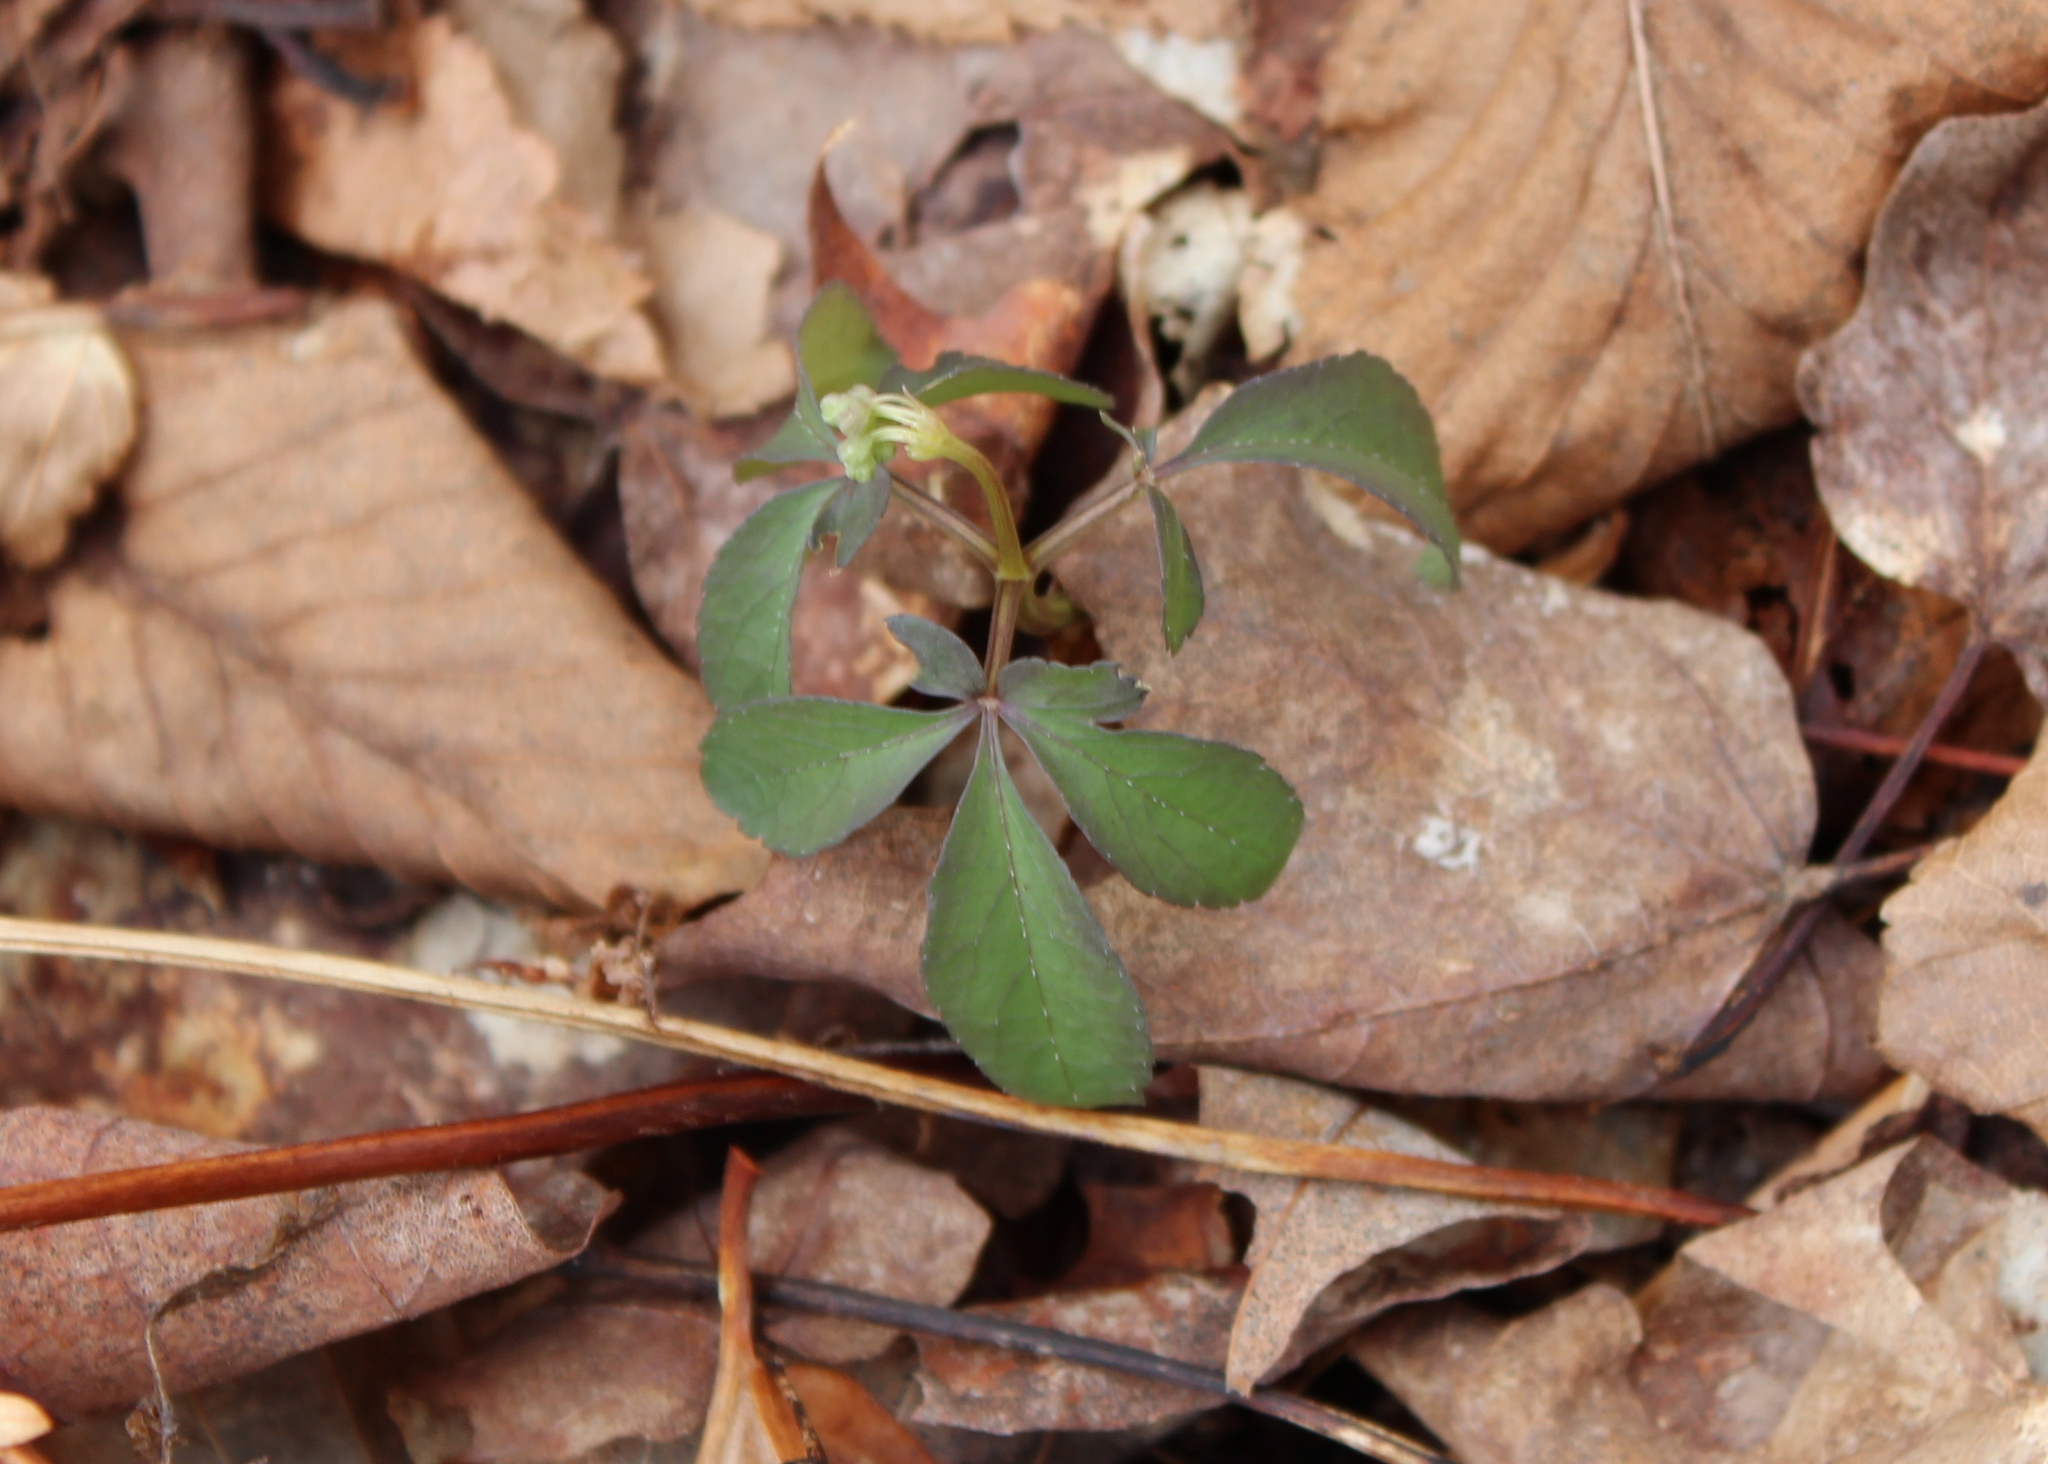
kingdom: Plantae
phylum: Tracheophyta
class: Magnoliopsida
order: Apiales
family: Araliaceae
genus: Panax
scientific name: Panax trifolius
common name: Dwarf ginseng
